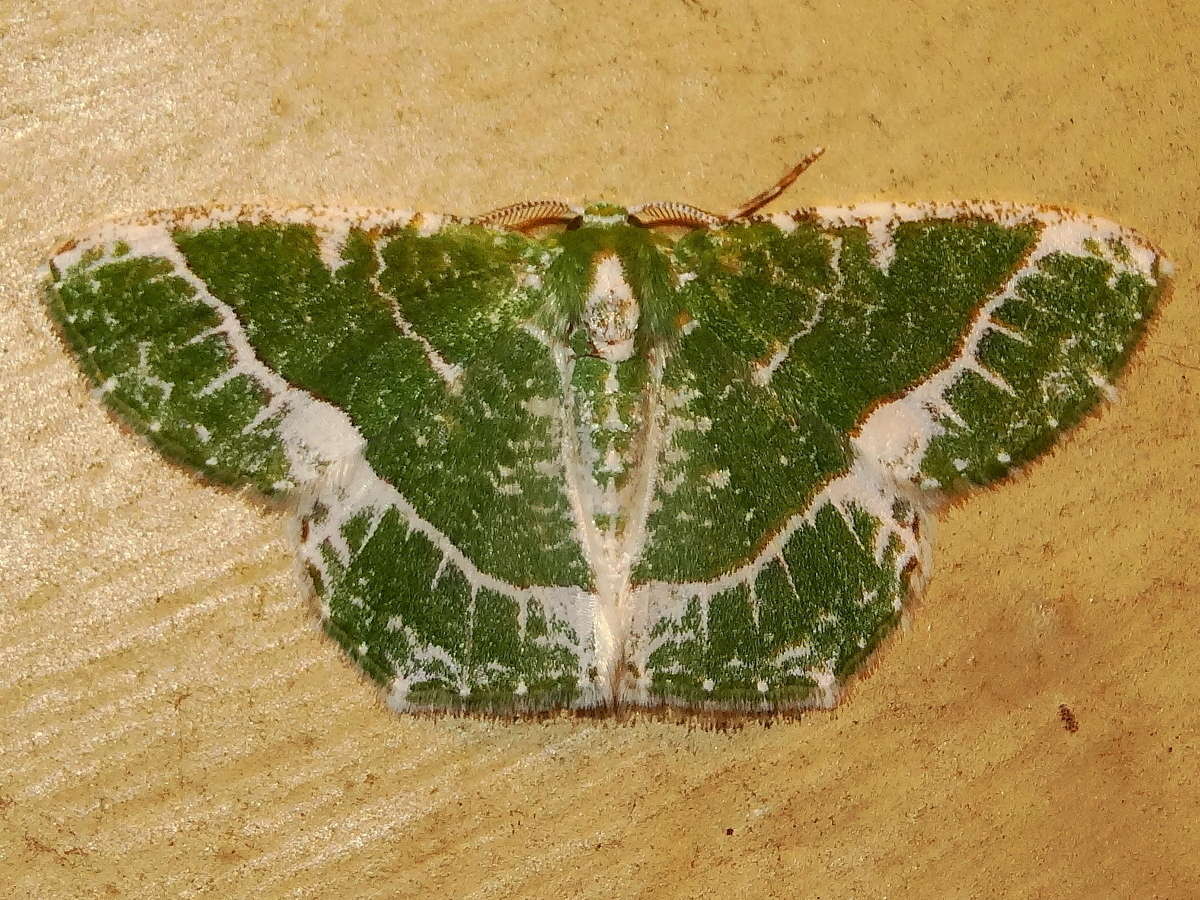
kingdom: Animalia
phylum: Arthropoda
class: Insecta
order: Lepidoptera
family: Geometridae
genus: Eucyclodes
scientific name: Eucyclodes insperata
